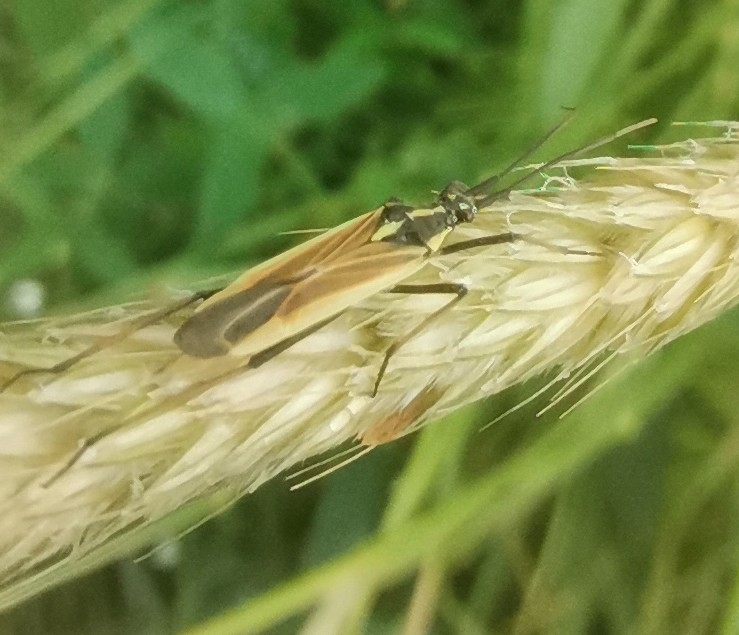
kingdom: Animalia
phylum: Arthropoda
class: Insecta
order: Hemiptera
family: Miridae
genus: Leptopterna
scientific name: Leptopterna dolabrata
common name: Meadow plant bug
